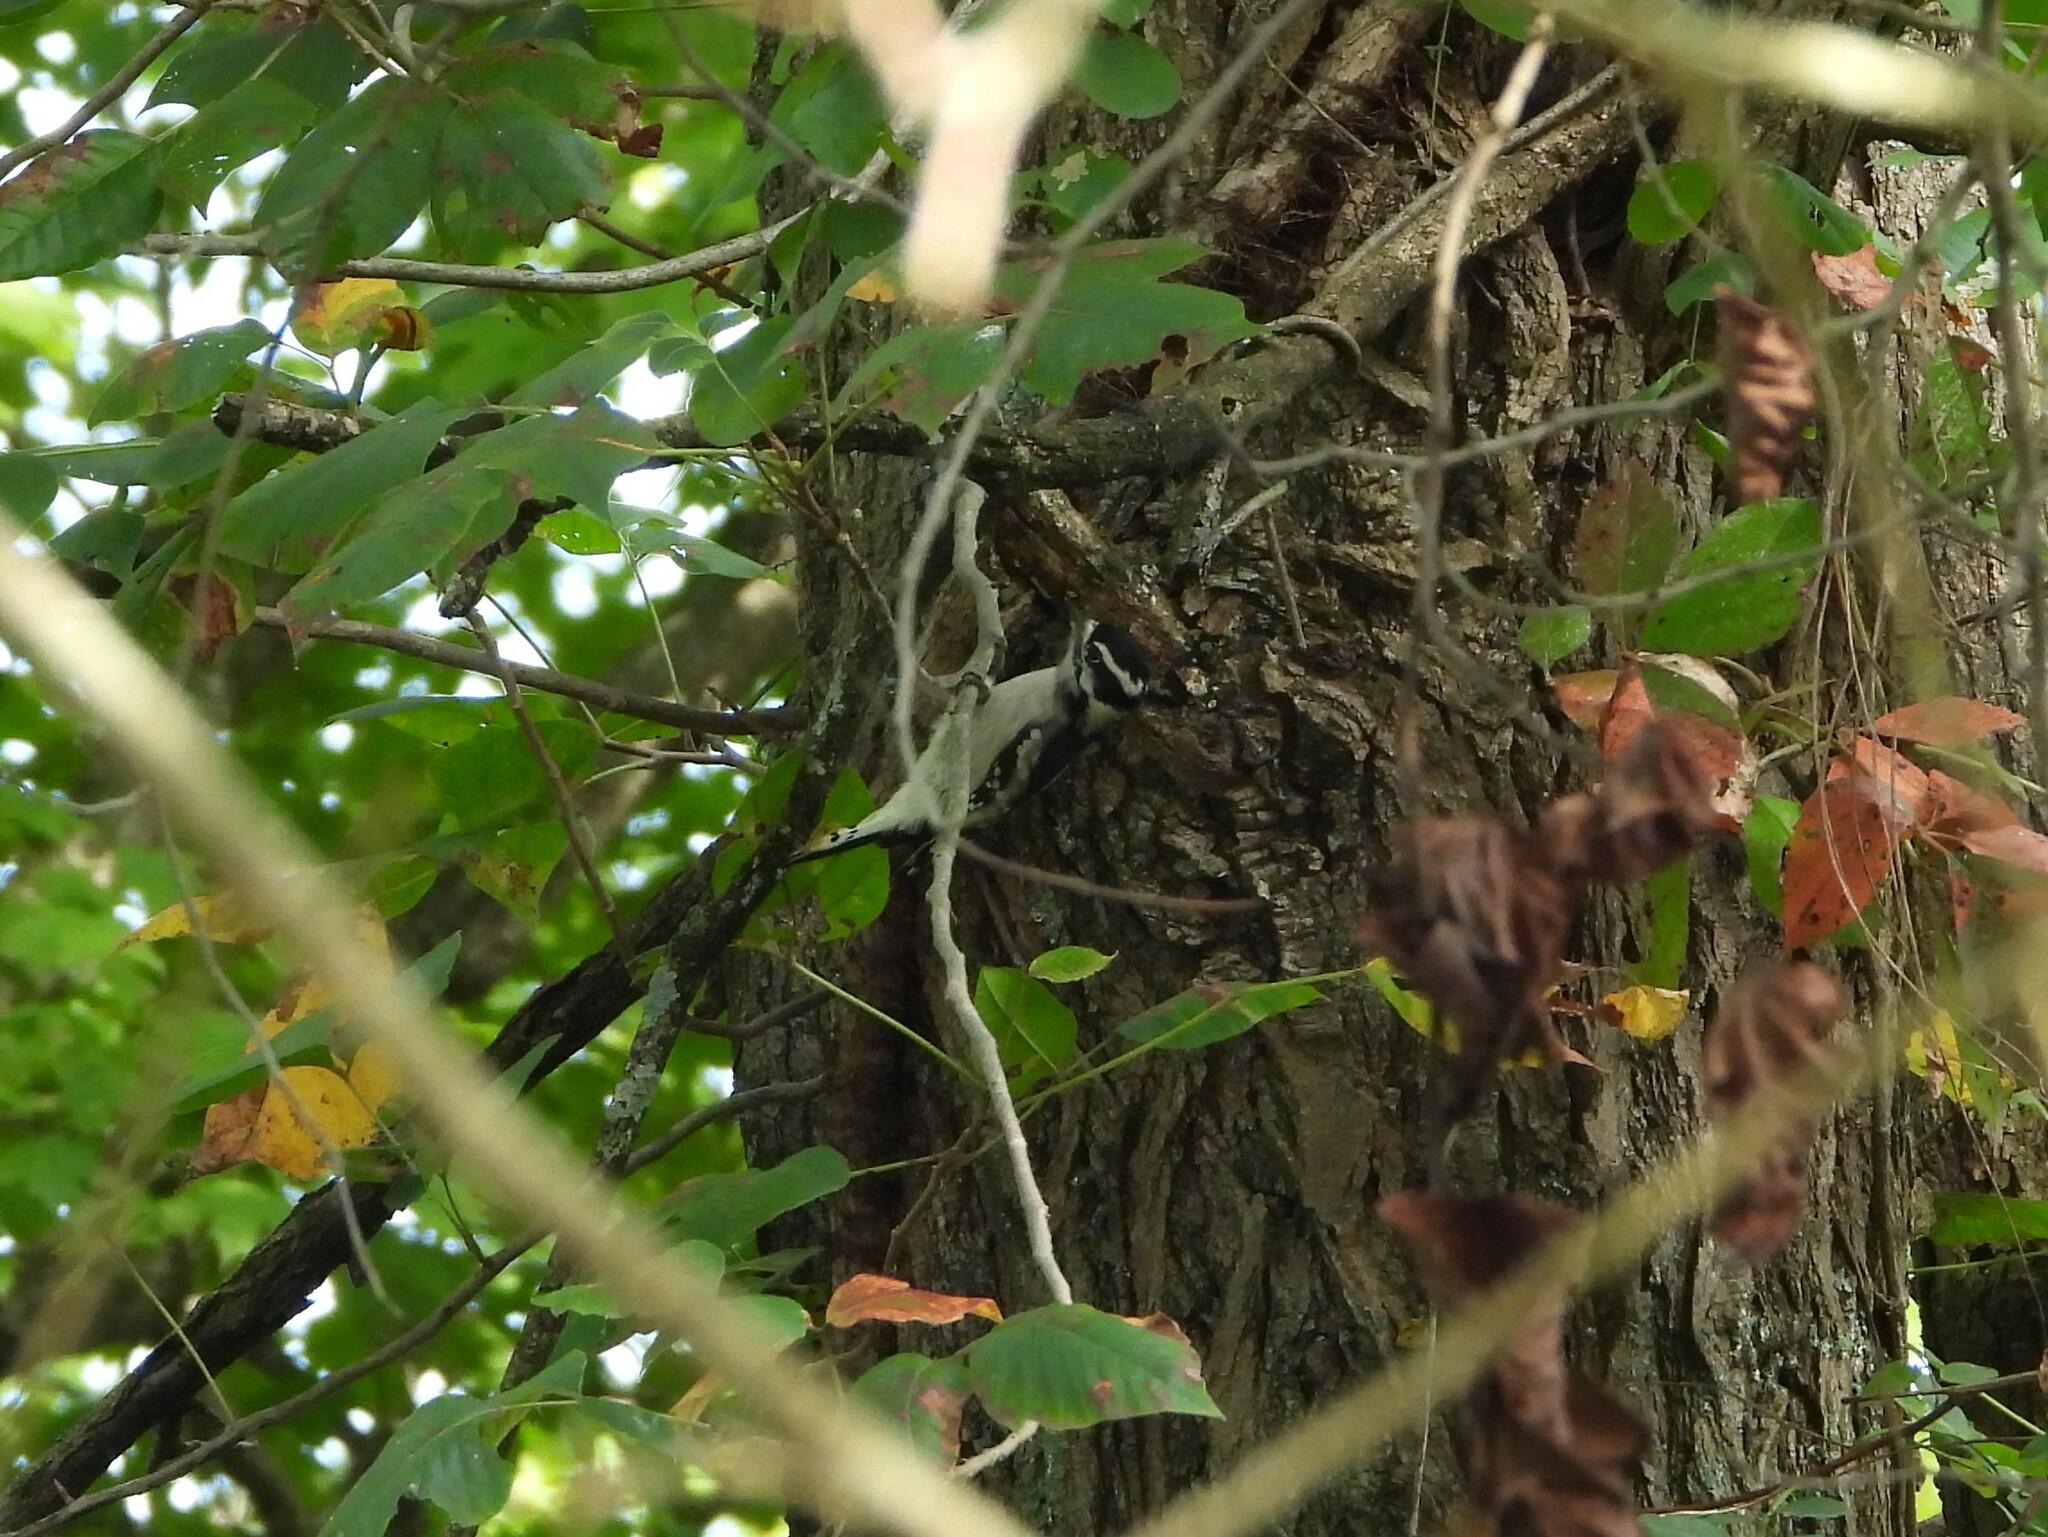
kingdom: Animalia
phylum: Chordata
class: Aves
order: Piciformes
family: Picidae
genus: Dryobates
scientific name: Dryobates pubescens
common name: Downy woodpecker
